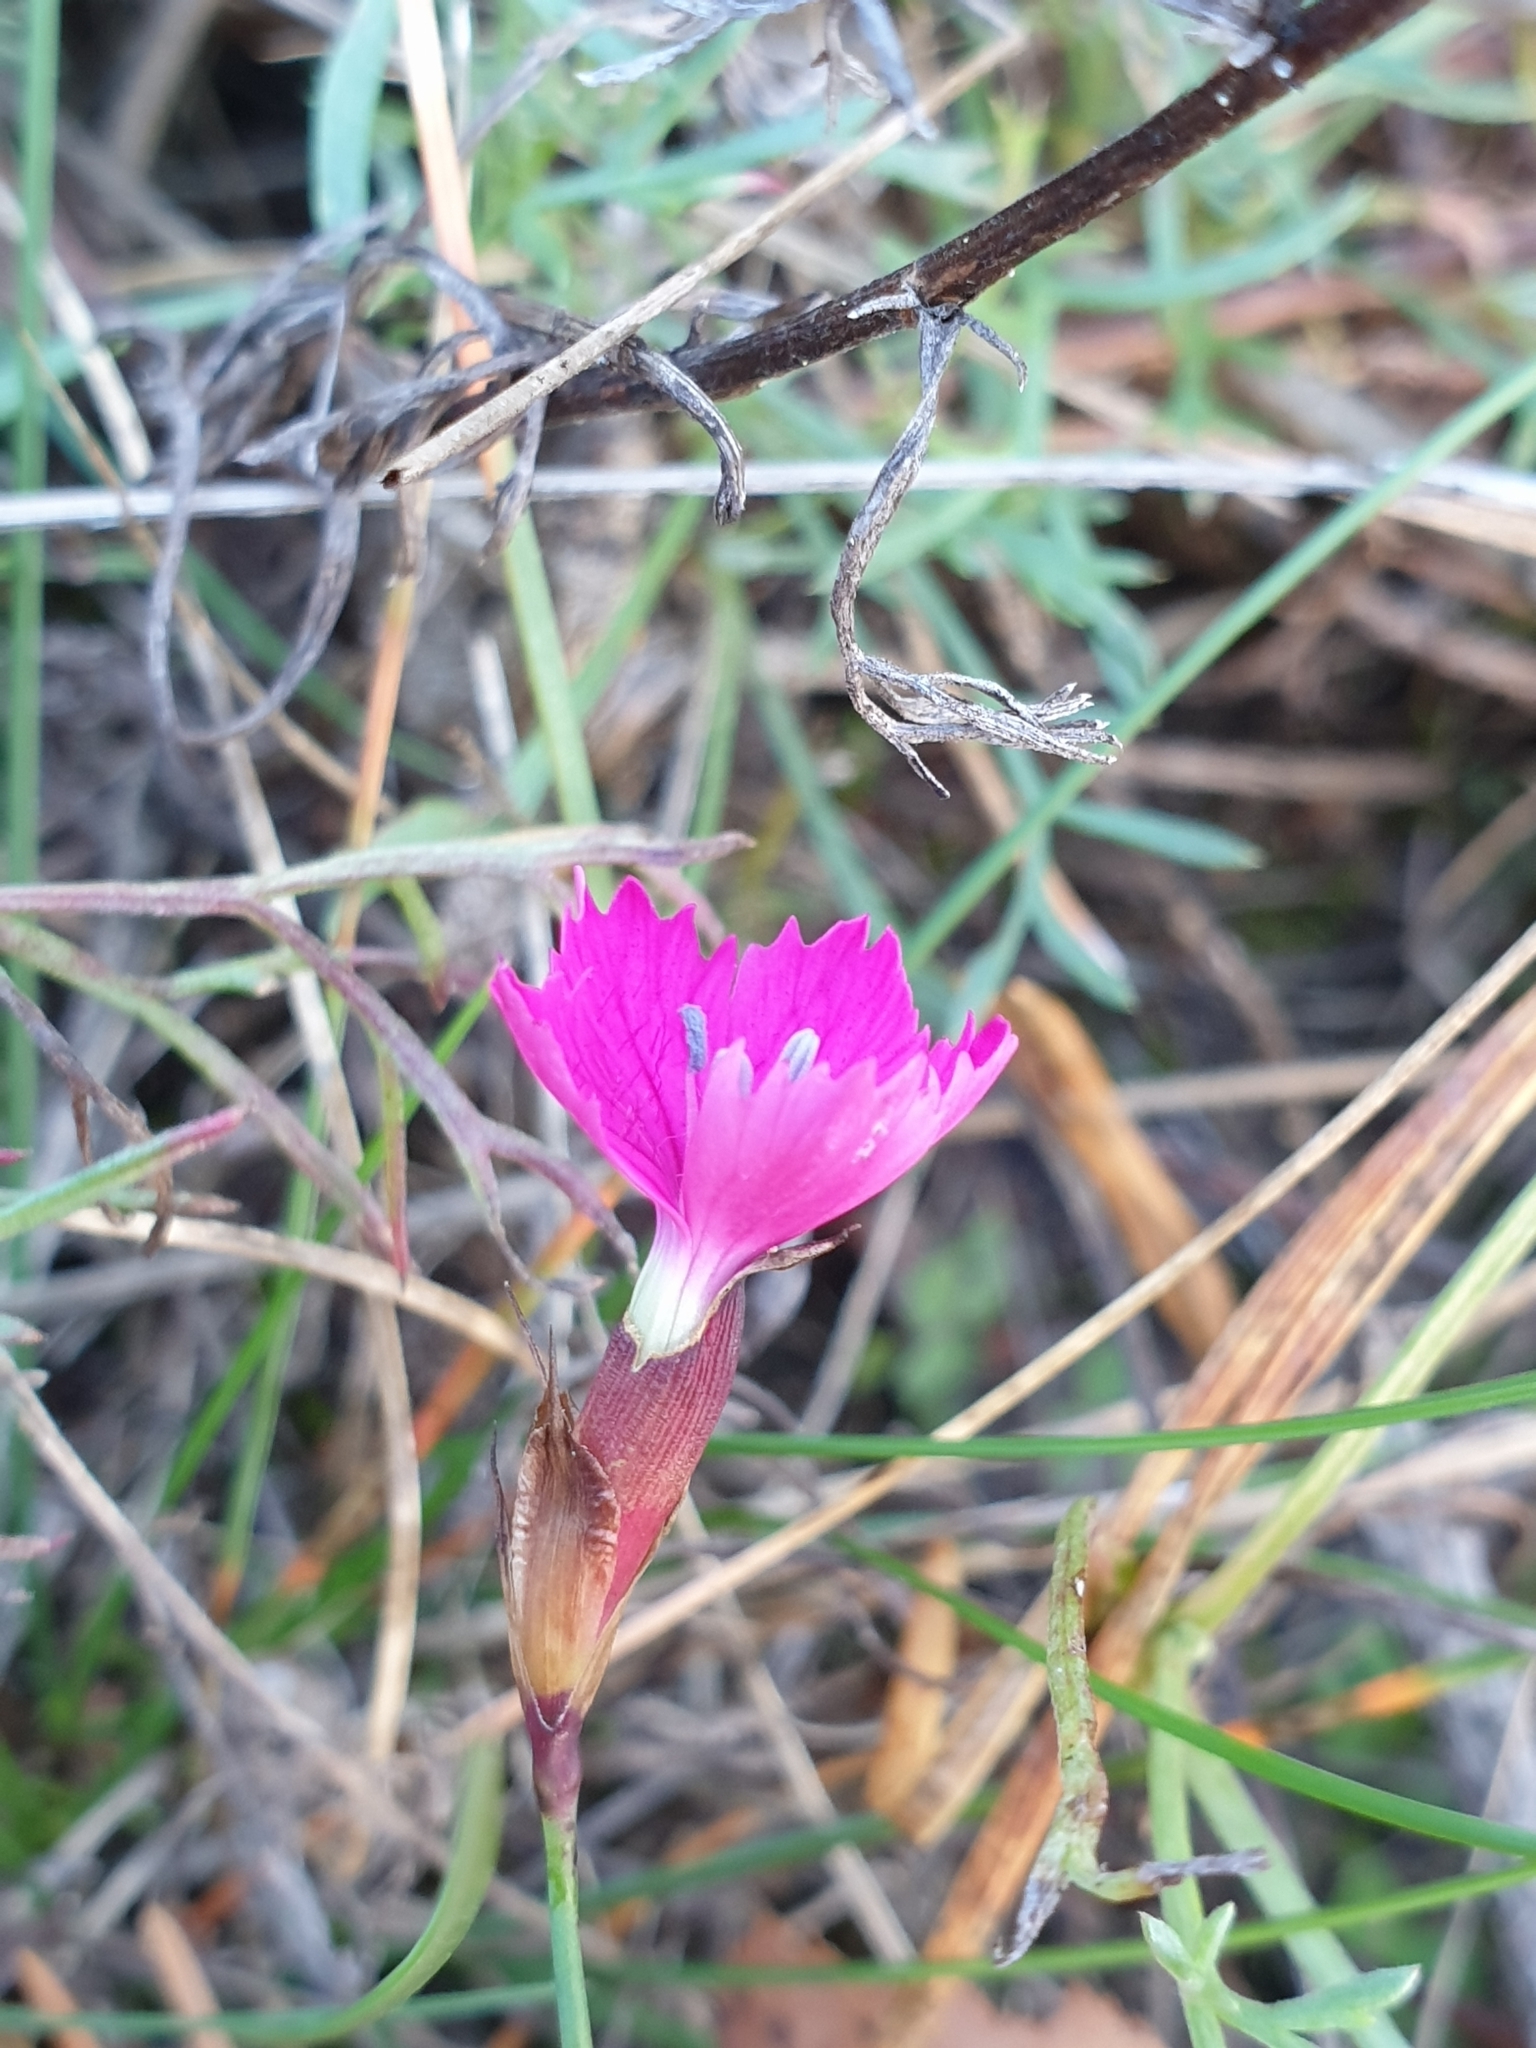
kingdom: Plantae
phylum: Tracheophyta
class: Magnoliopsida
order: Caryophyllales
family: Caryophyllaceae
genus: Dianthus
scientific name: Dianthus carthusianorum
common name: Carthusian pink
